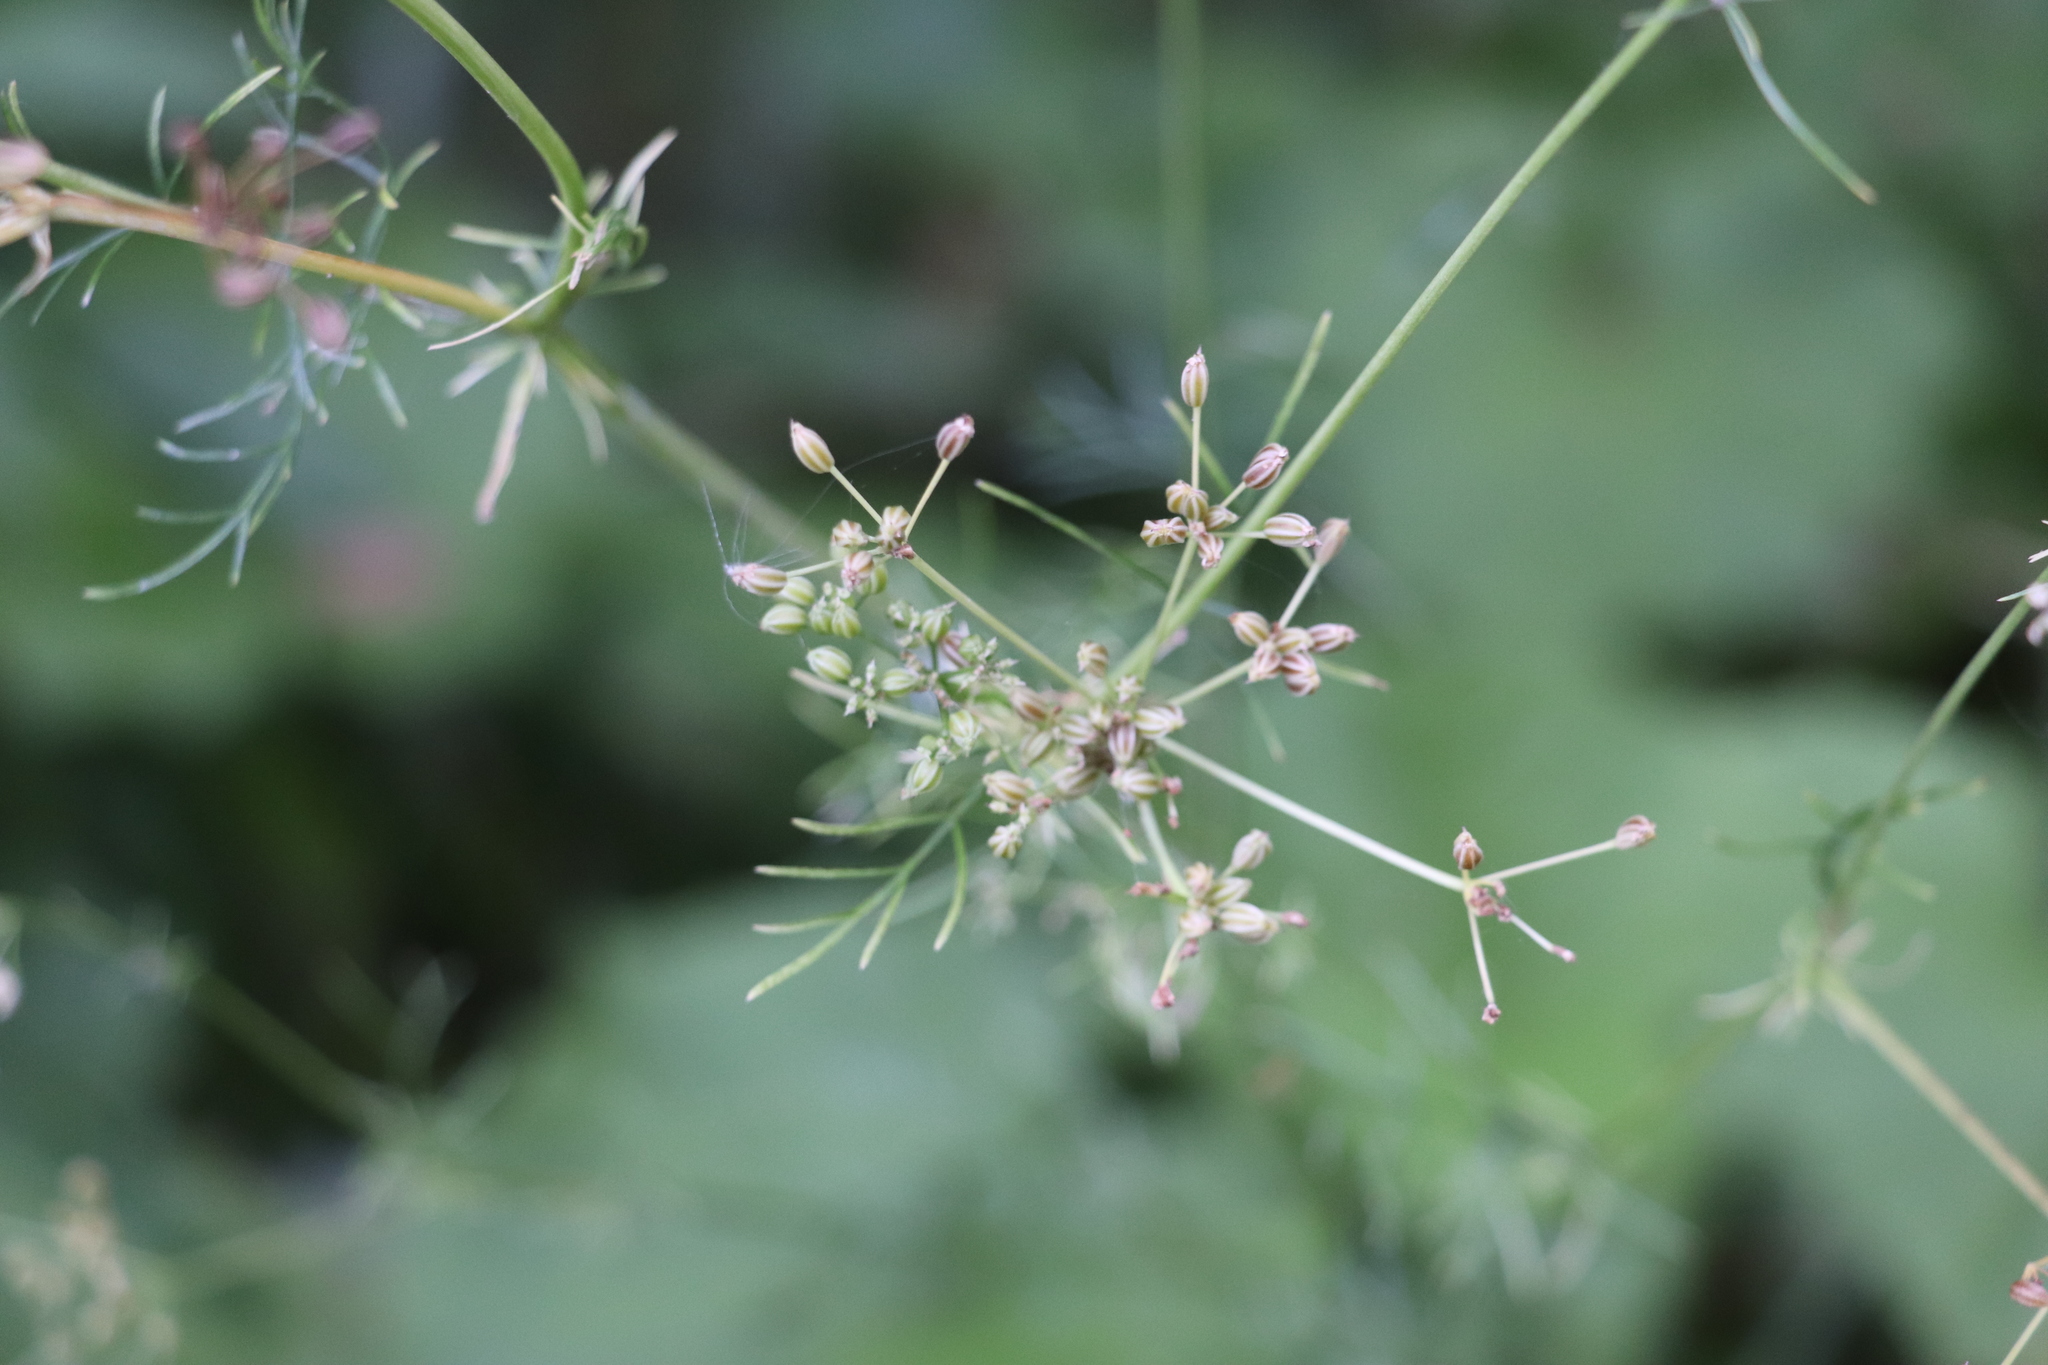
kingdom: Plantae
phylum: Tracheophyta
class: Magnoliopsida
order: Apiales
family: Apiaceae
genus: Carum
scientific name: Carum carvi
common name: Caraway
